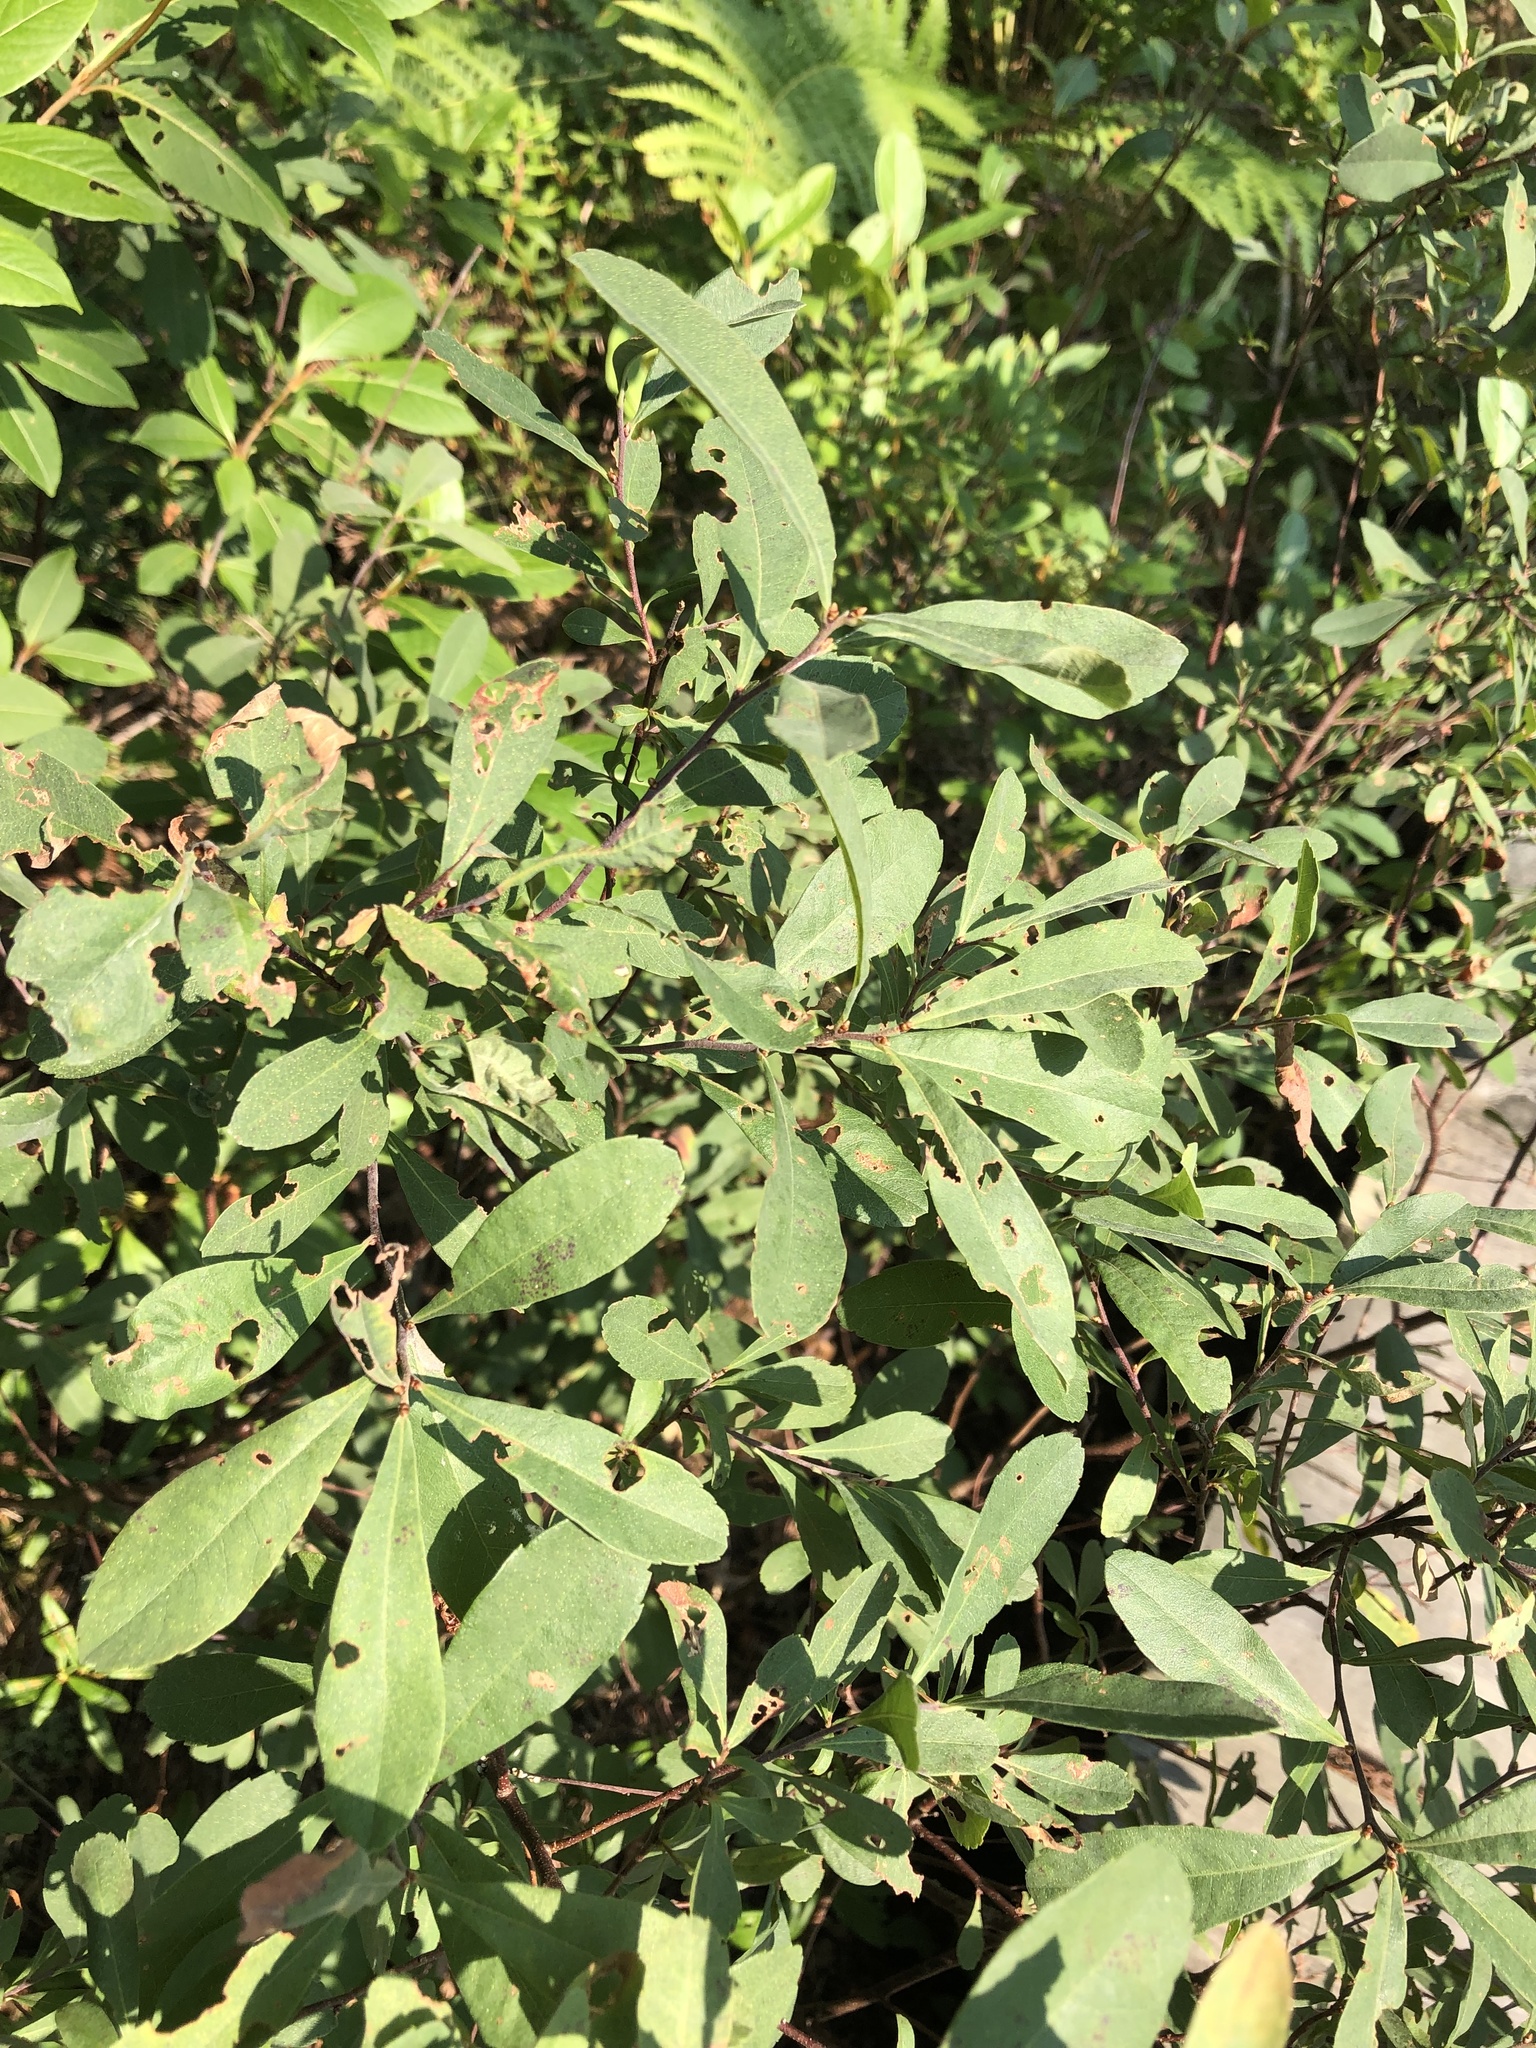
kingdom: Plantae
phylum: Tracheophyta
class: Magnoliopsida
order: Fagales
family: Myricaceae
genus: Myrica
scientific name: Myrica gale
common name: Sweet gale
